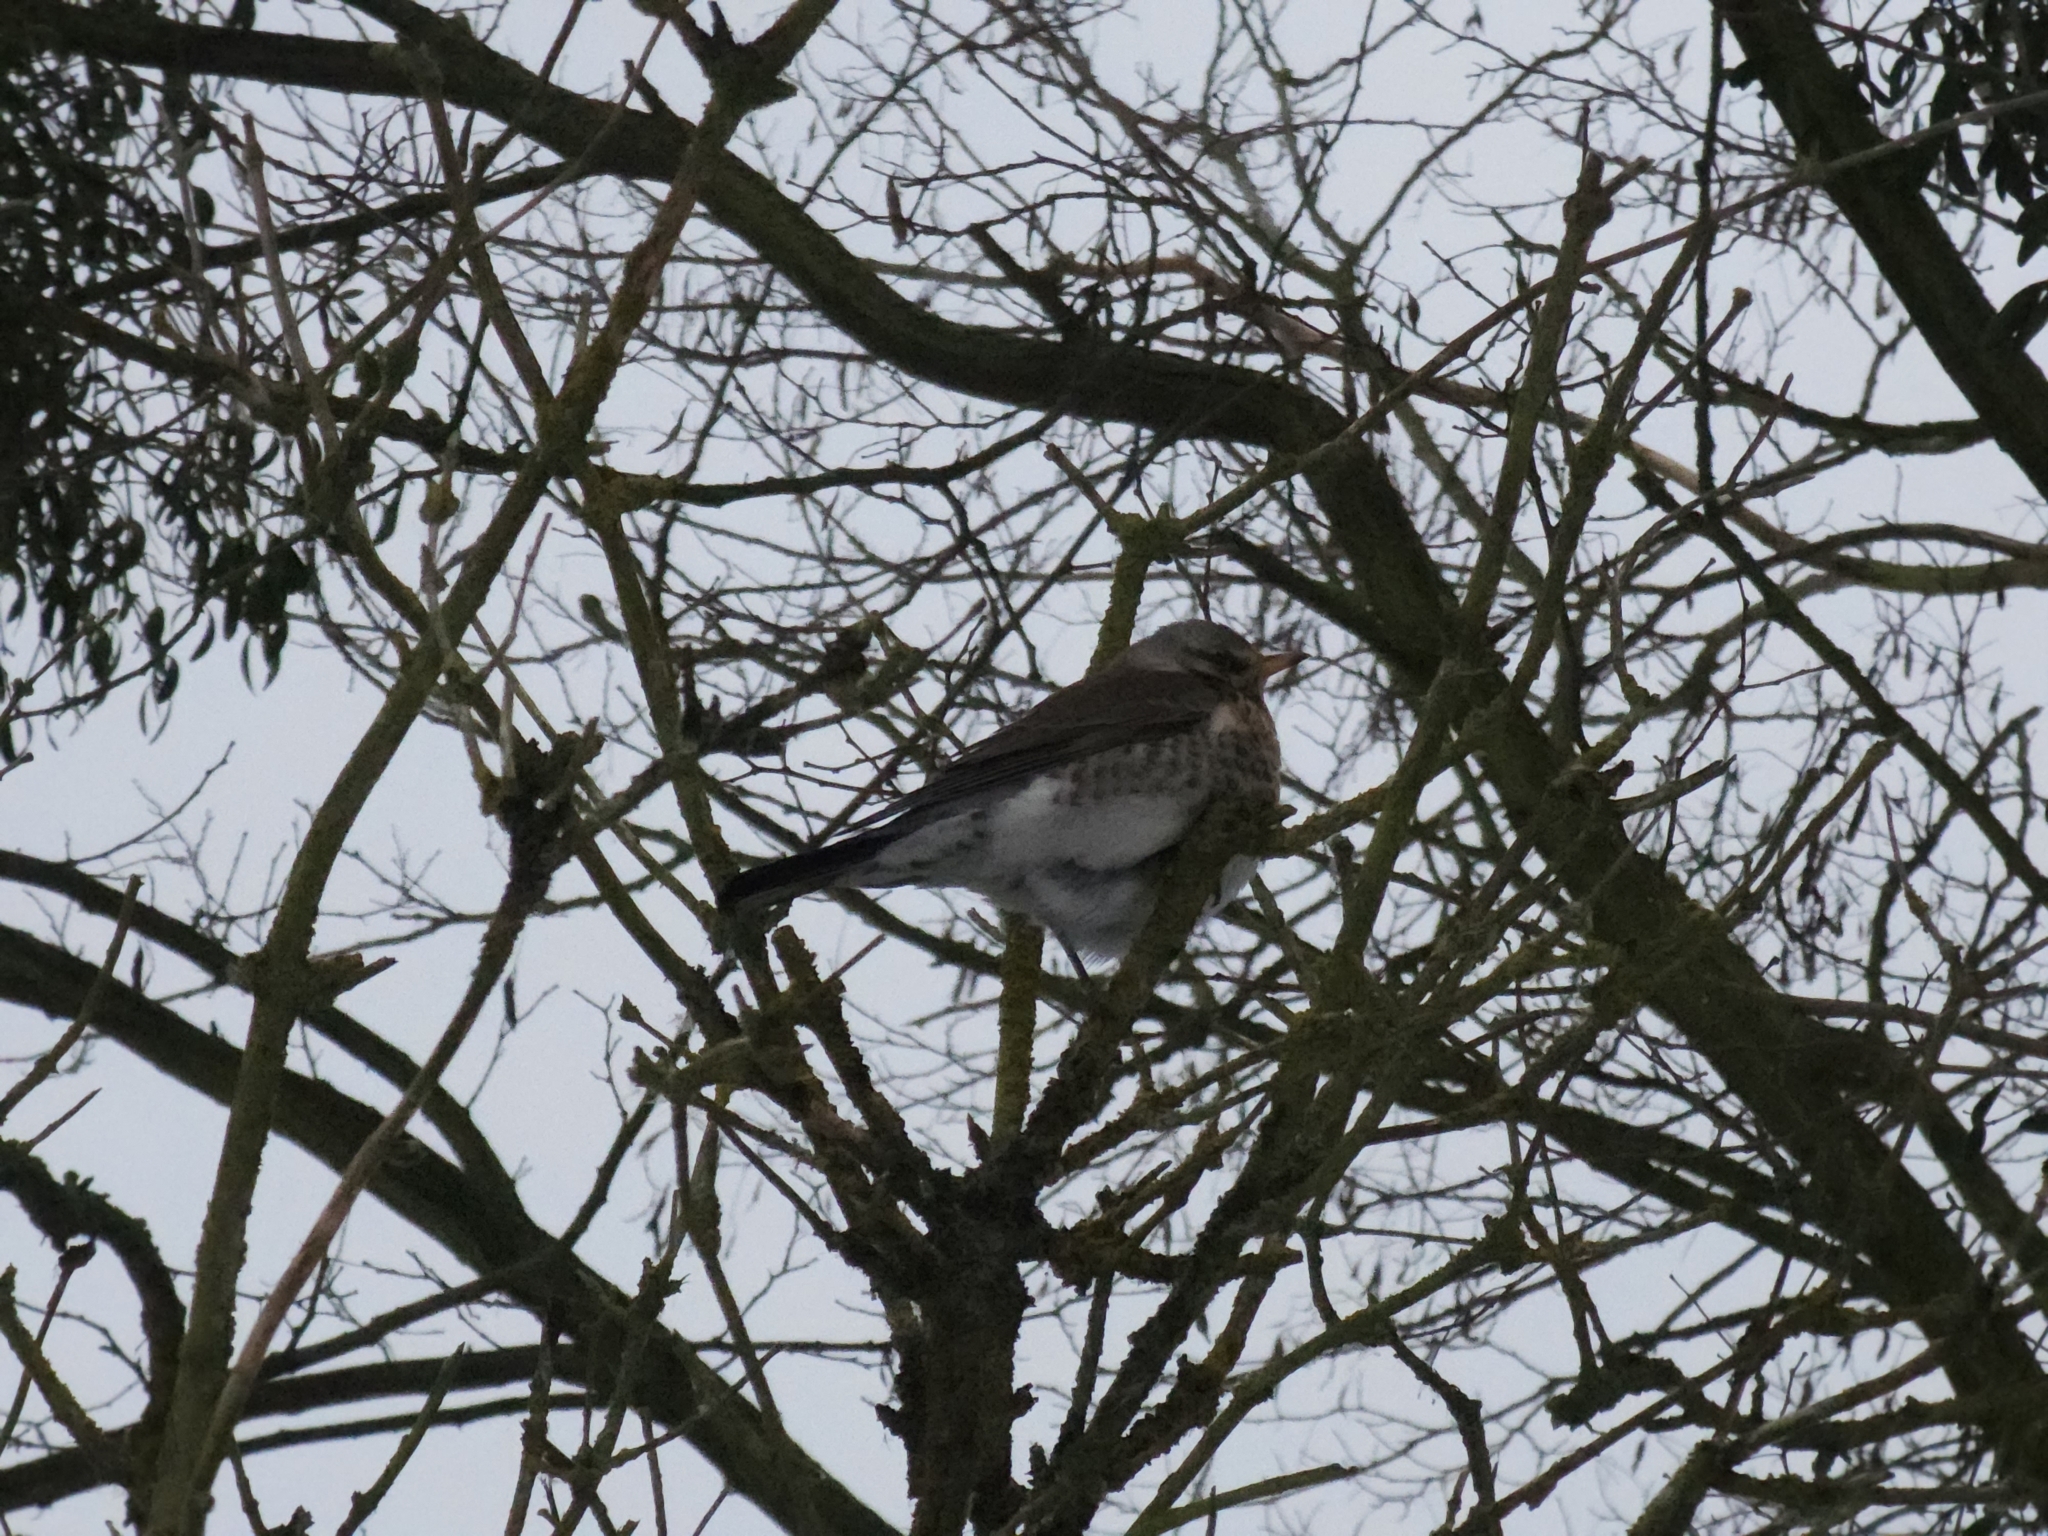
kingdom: Animalia
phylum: Chordata
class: Aves
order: Passeriformes
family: Turdidae
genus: Turdus
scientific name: Turdus pilaris
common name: Fieldfare
